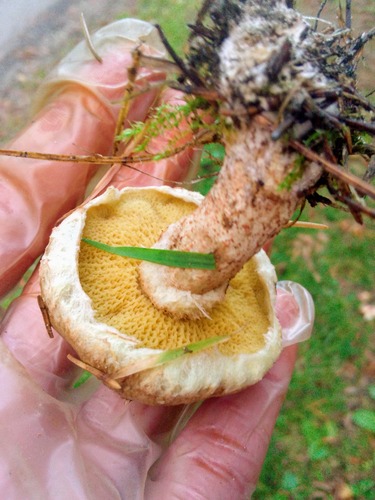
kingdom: Fungi
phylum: Basidiomycota
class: Agaricomycetes
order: Boletales
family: Suillaceae
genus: Suillus
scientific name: Suillus americanus
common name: Chicken fat mushroom
